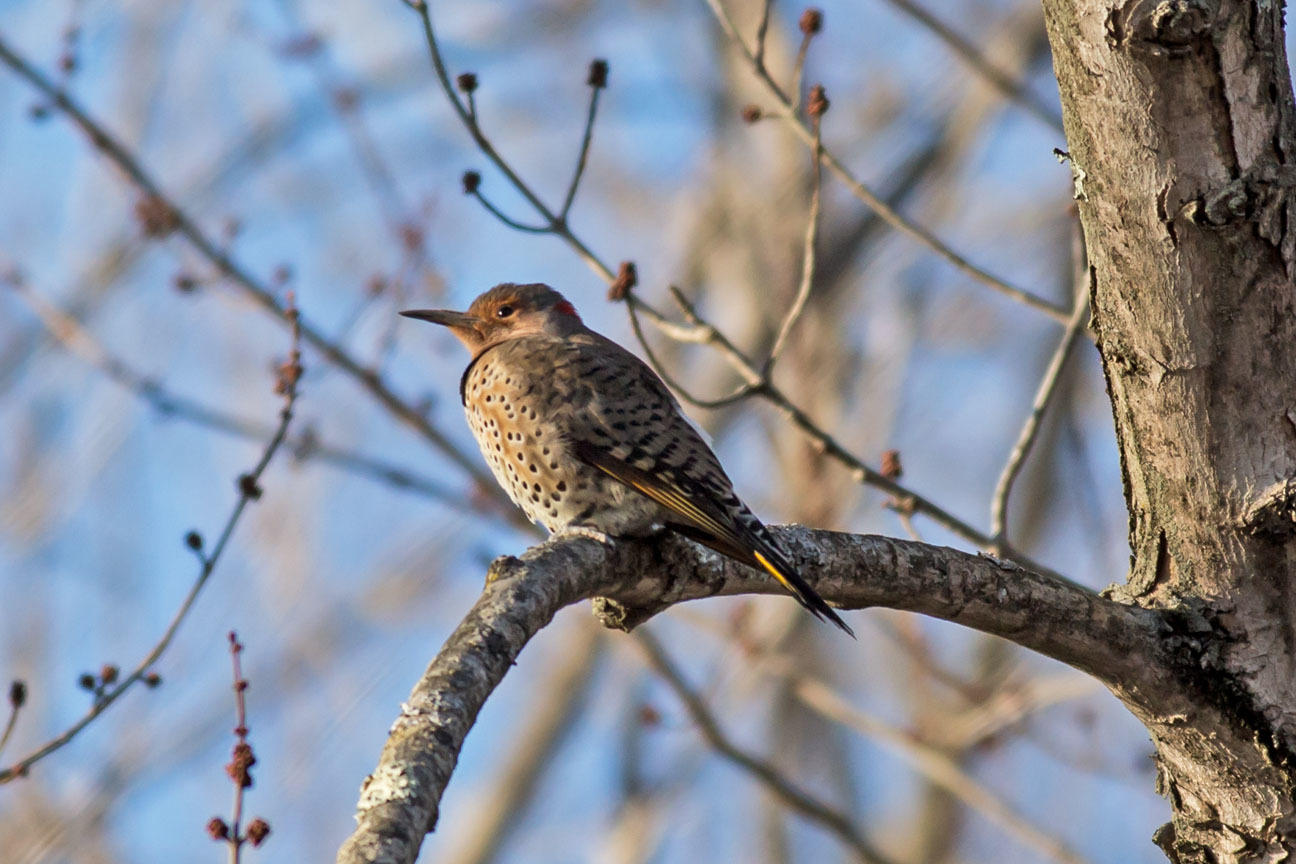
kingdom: Animalia
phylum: Chordata
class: Aves
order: Piciformes
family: Picidae
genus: Colaptes
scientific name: Colaptes auratus
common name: Northern flicker
